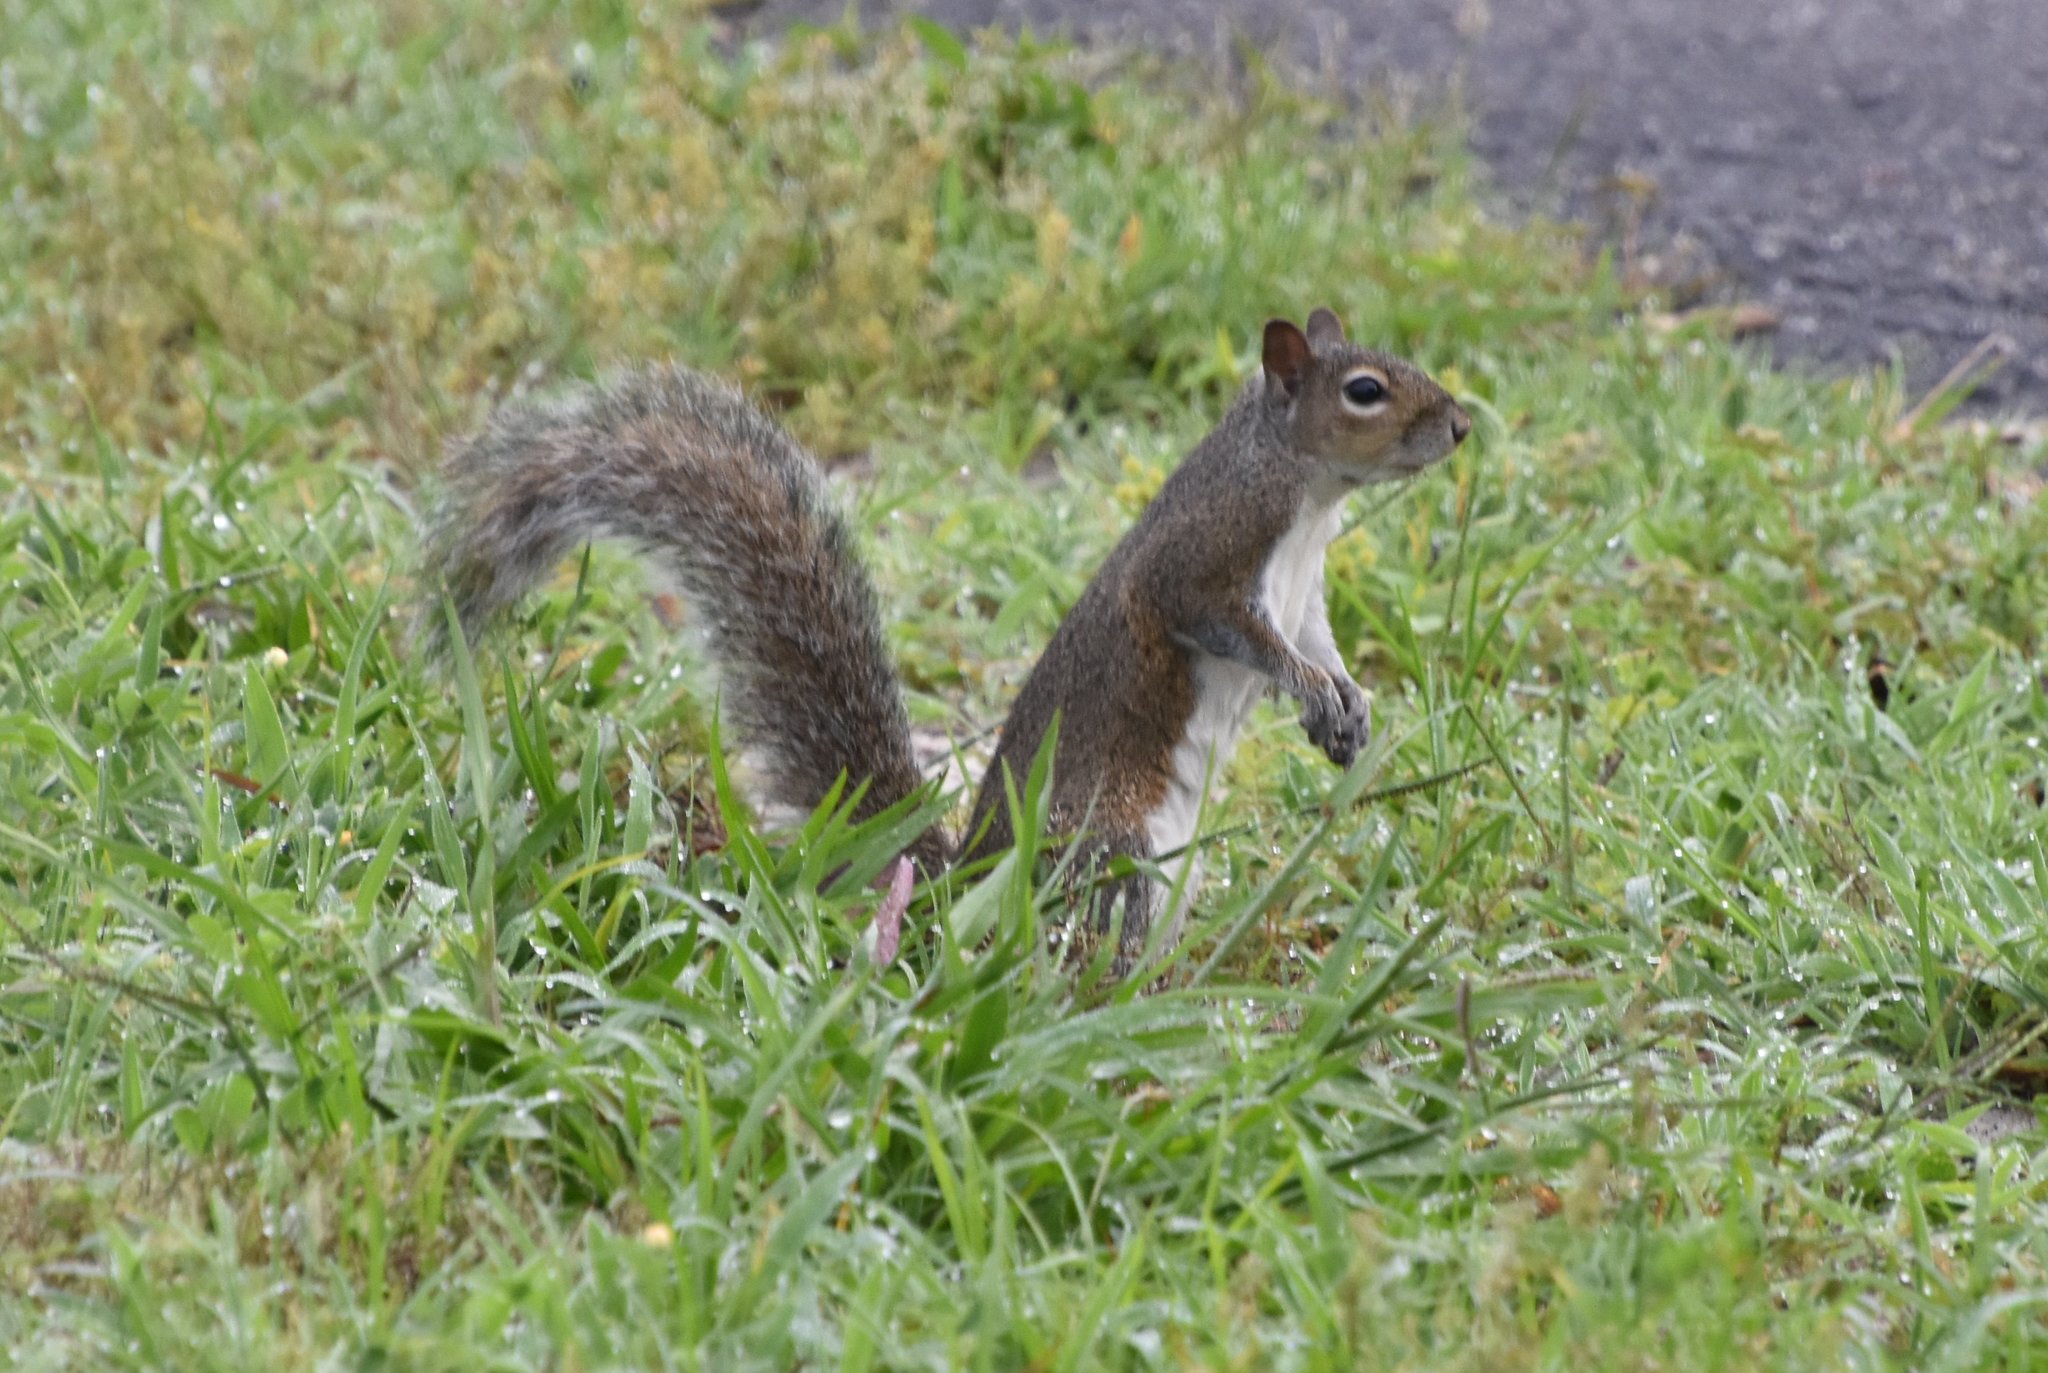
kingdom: Animalia
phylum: Chordata
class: Mammalia
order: Rodentia
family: Sciuridae
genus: Sciurus
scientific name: Sciurus carolinensis
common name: Eastern gray squirrel
